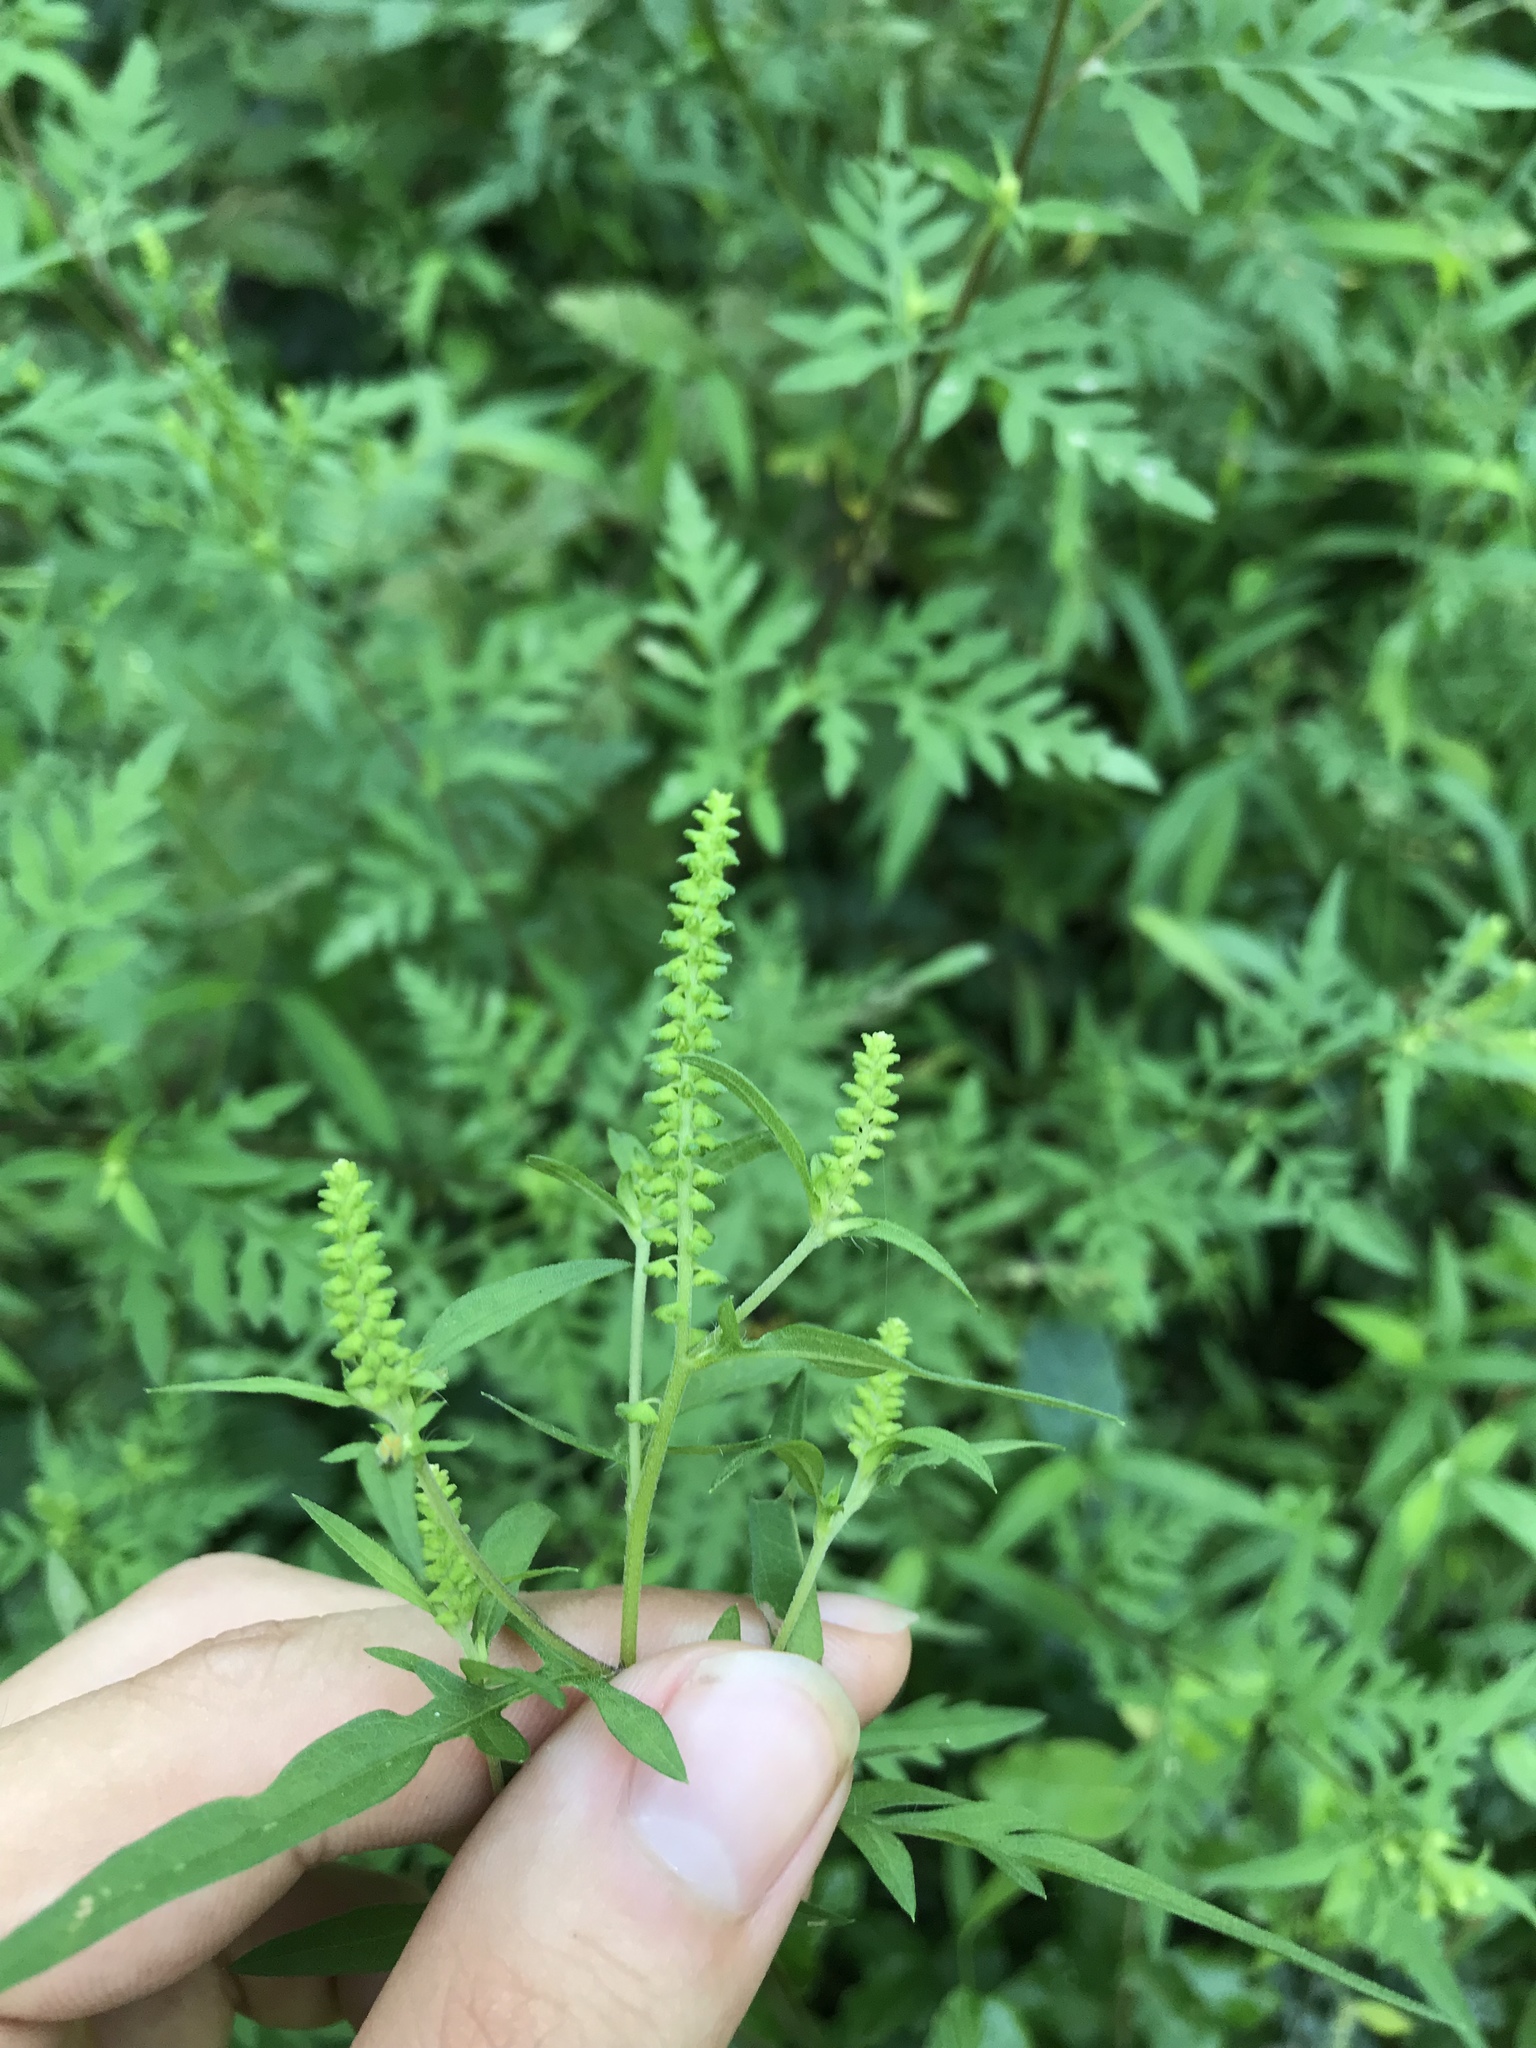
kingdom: Plantae
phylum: Tracheophyta
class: Magnoliopsida
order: Asterales
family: Asteraceae
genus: Ambrosia
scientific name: Ambrosia artemisiifolia
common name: Annual ragweed
